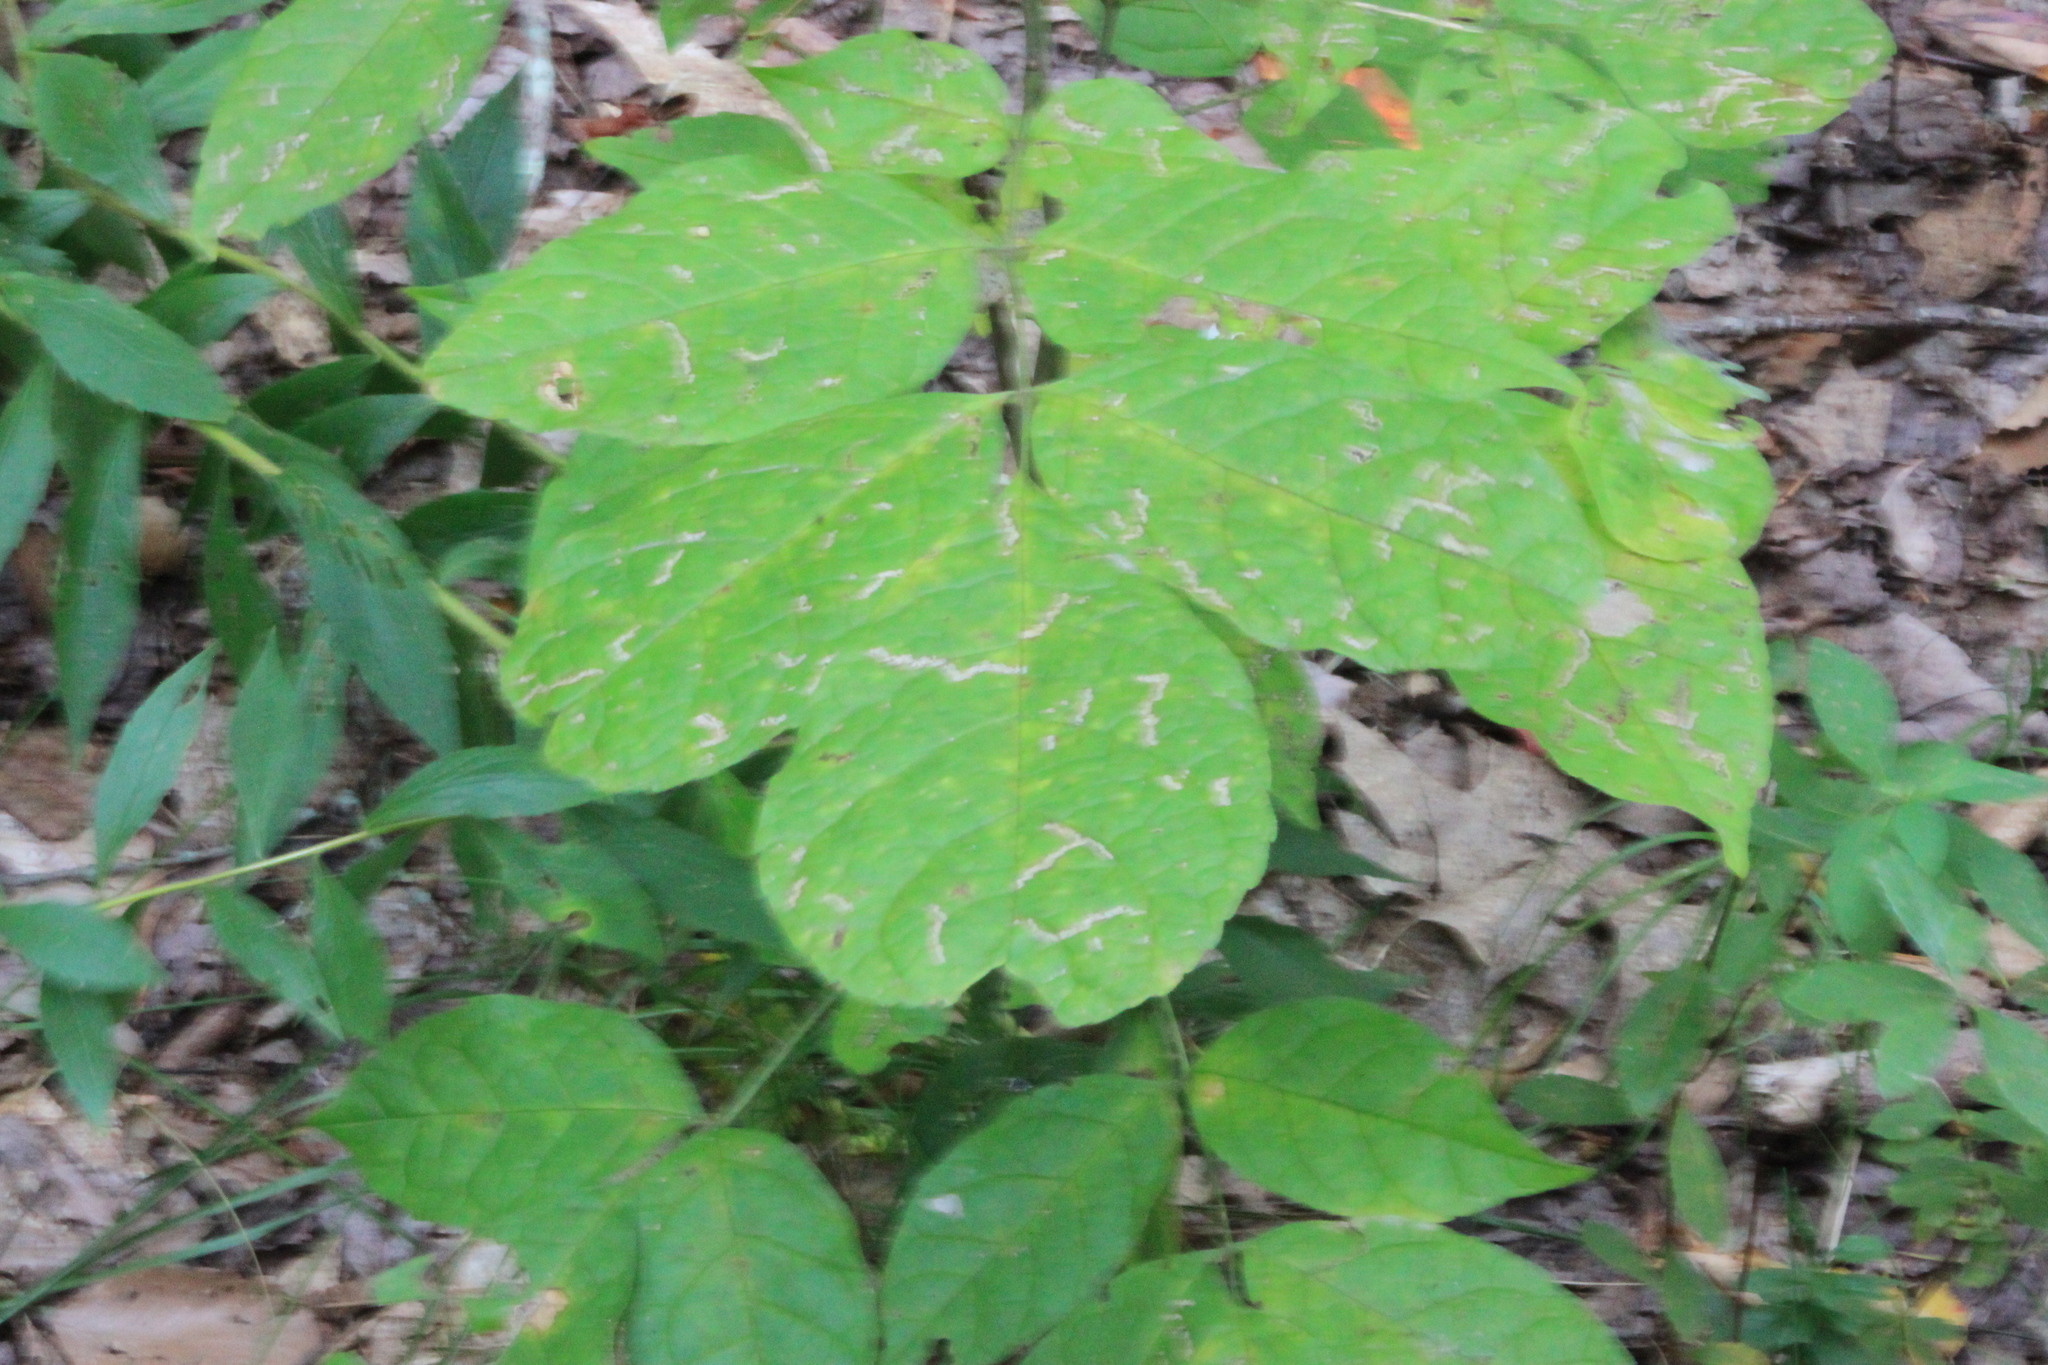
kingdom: Plantae
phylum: Tracheophyta
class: Magnoliopsida
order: Sapindales
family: Sapindaceae
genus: Acer
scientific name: Acer negundo
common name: Ashleaf maple
